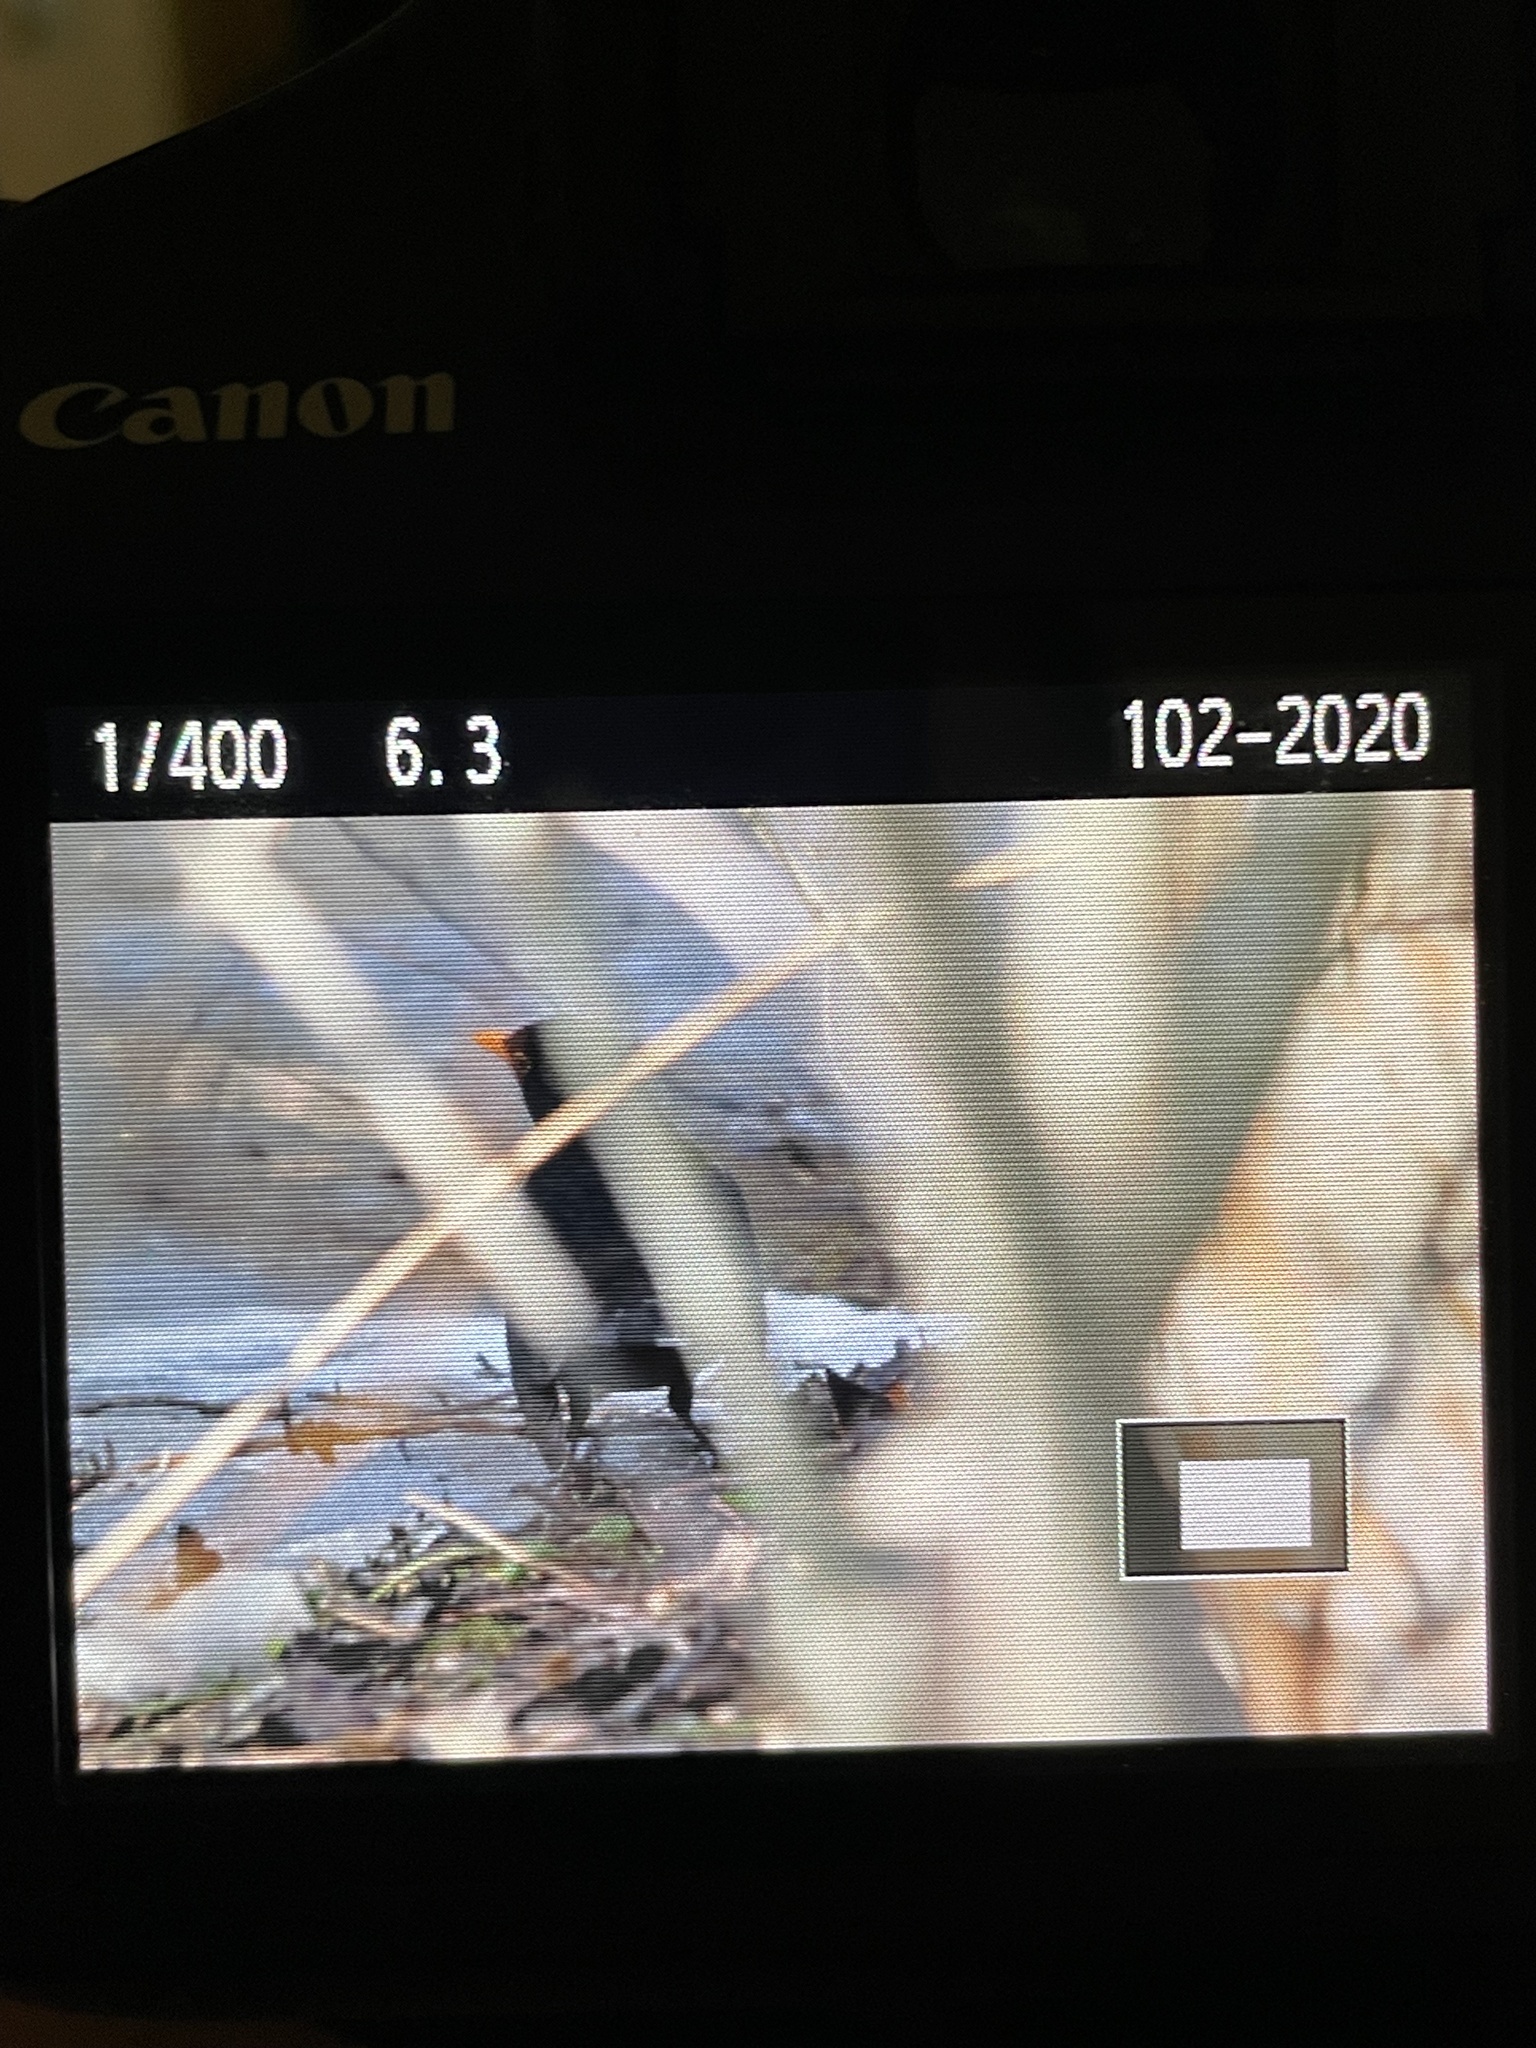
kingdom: Animalia
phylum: Chordata
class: Aves
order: Passeriformes
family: Turdidae
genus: Turdus
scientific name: Turdus merula
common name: Common blackbird
